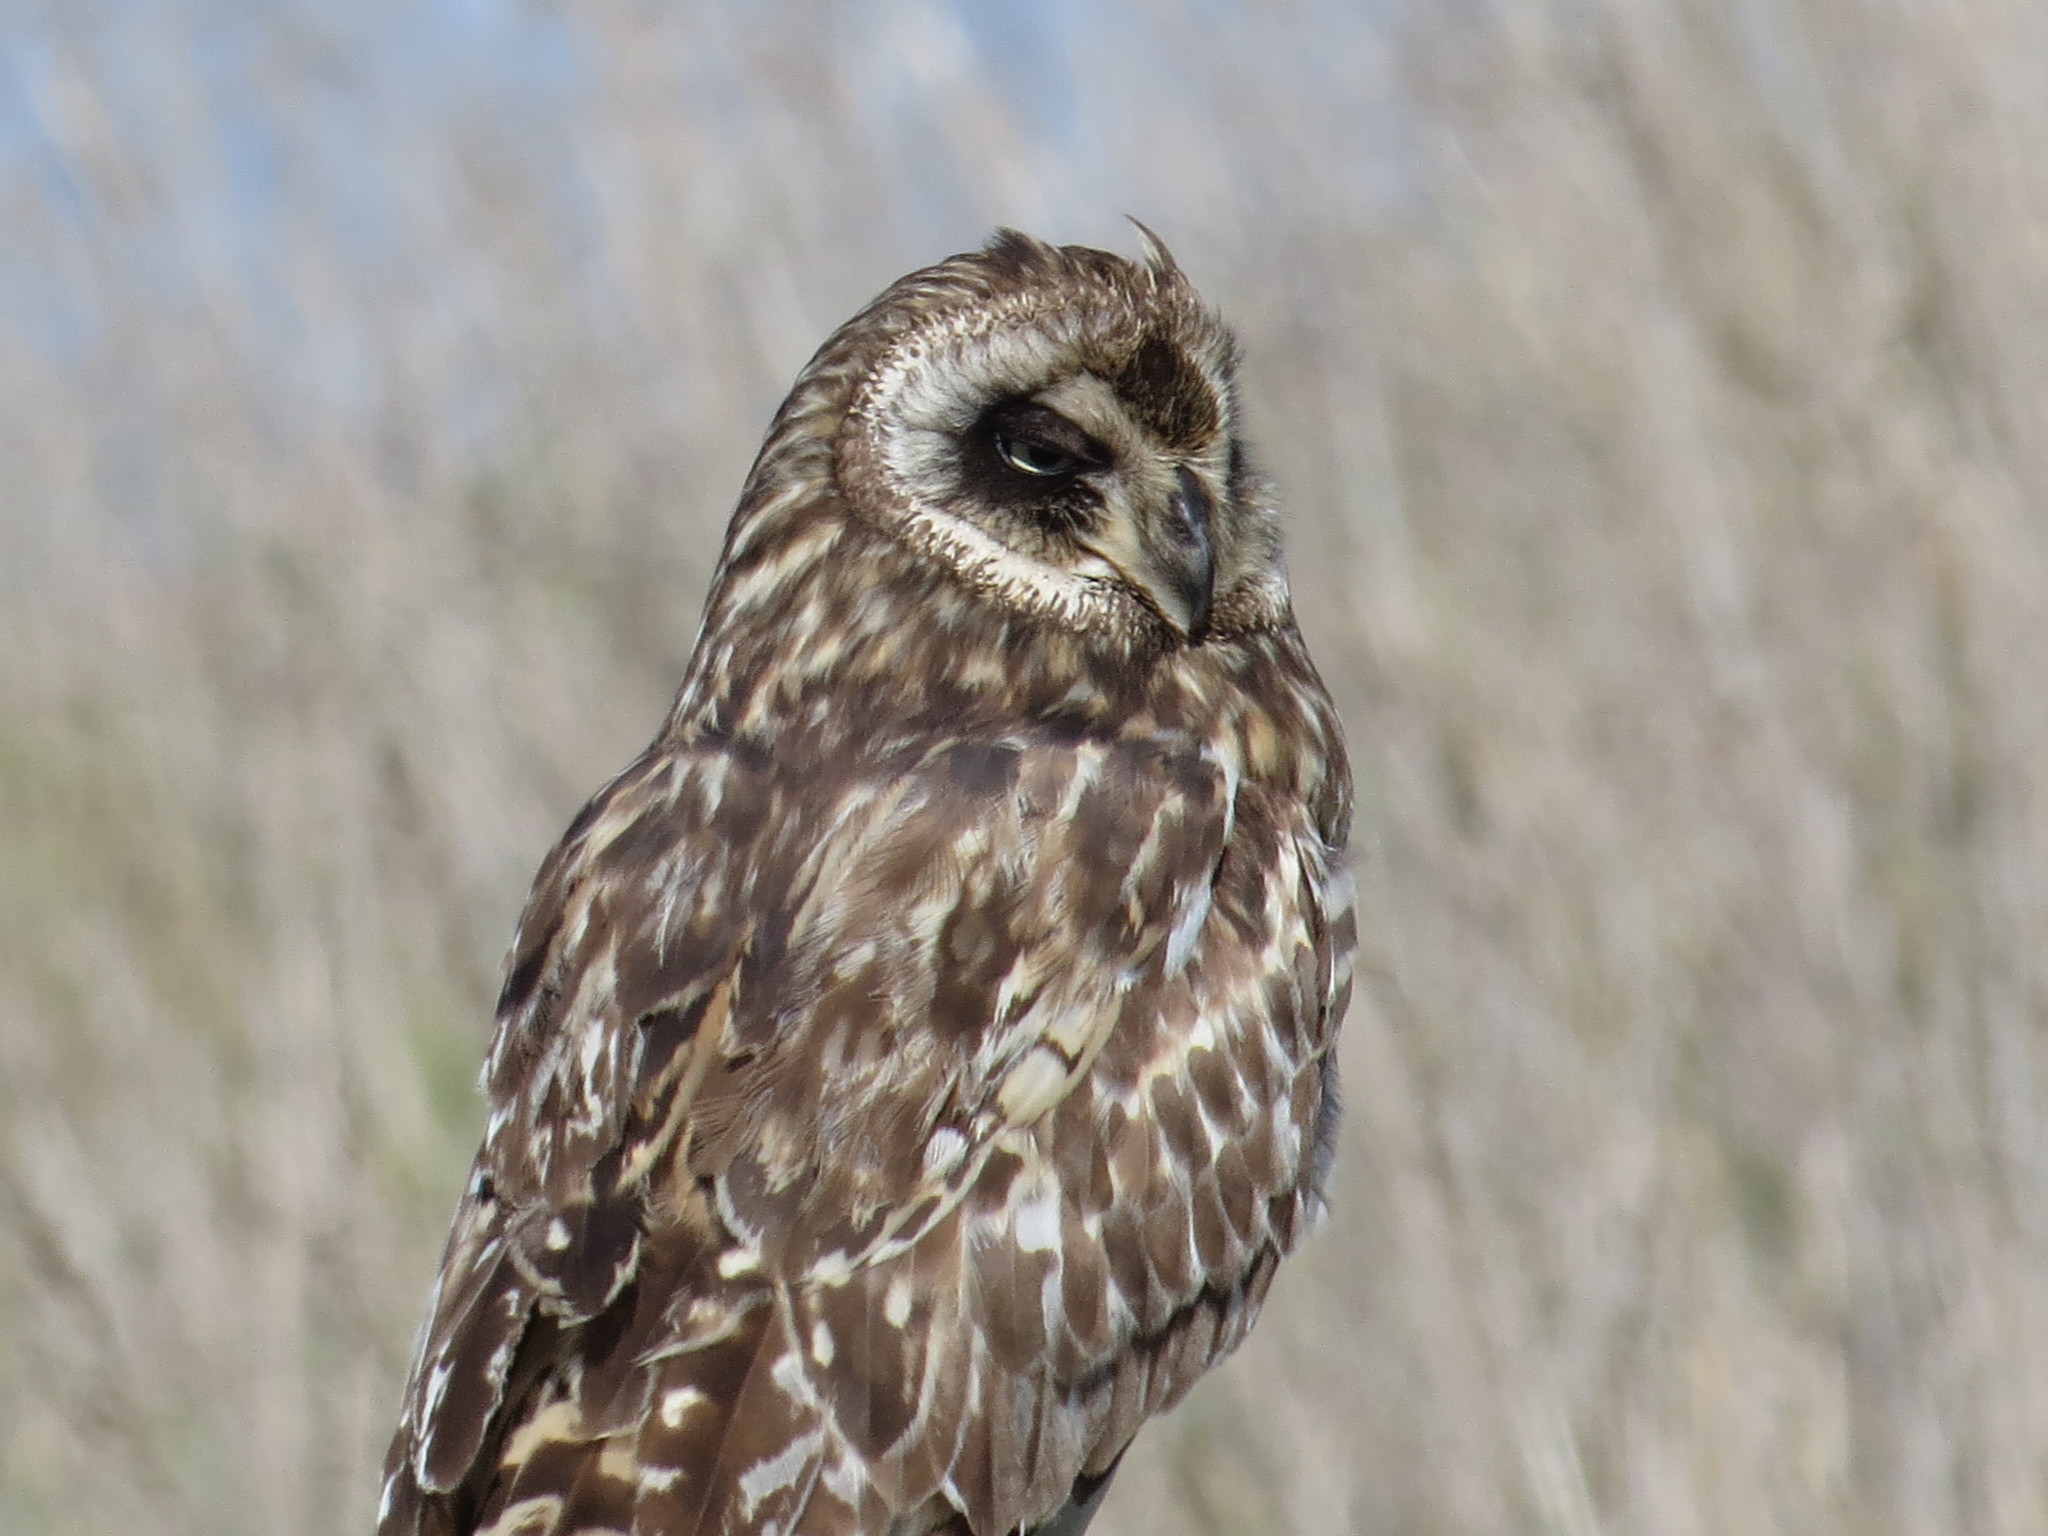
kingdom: Animalia
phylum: Chordata
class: Aves
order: Strigiformes
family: Strigidae
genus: Asio
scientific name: Asio flammeus
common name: Short-eared owl
